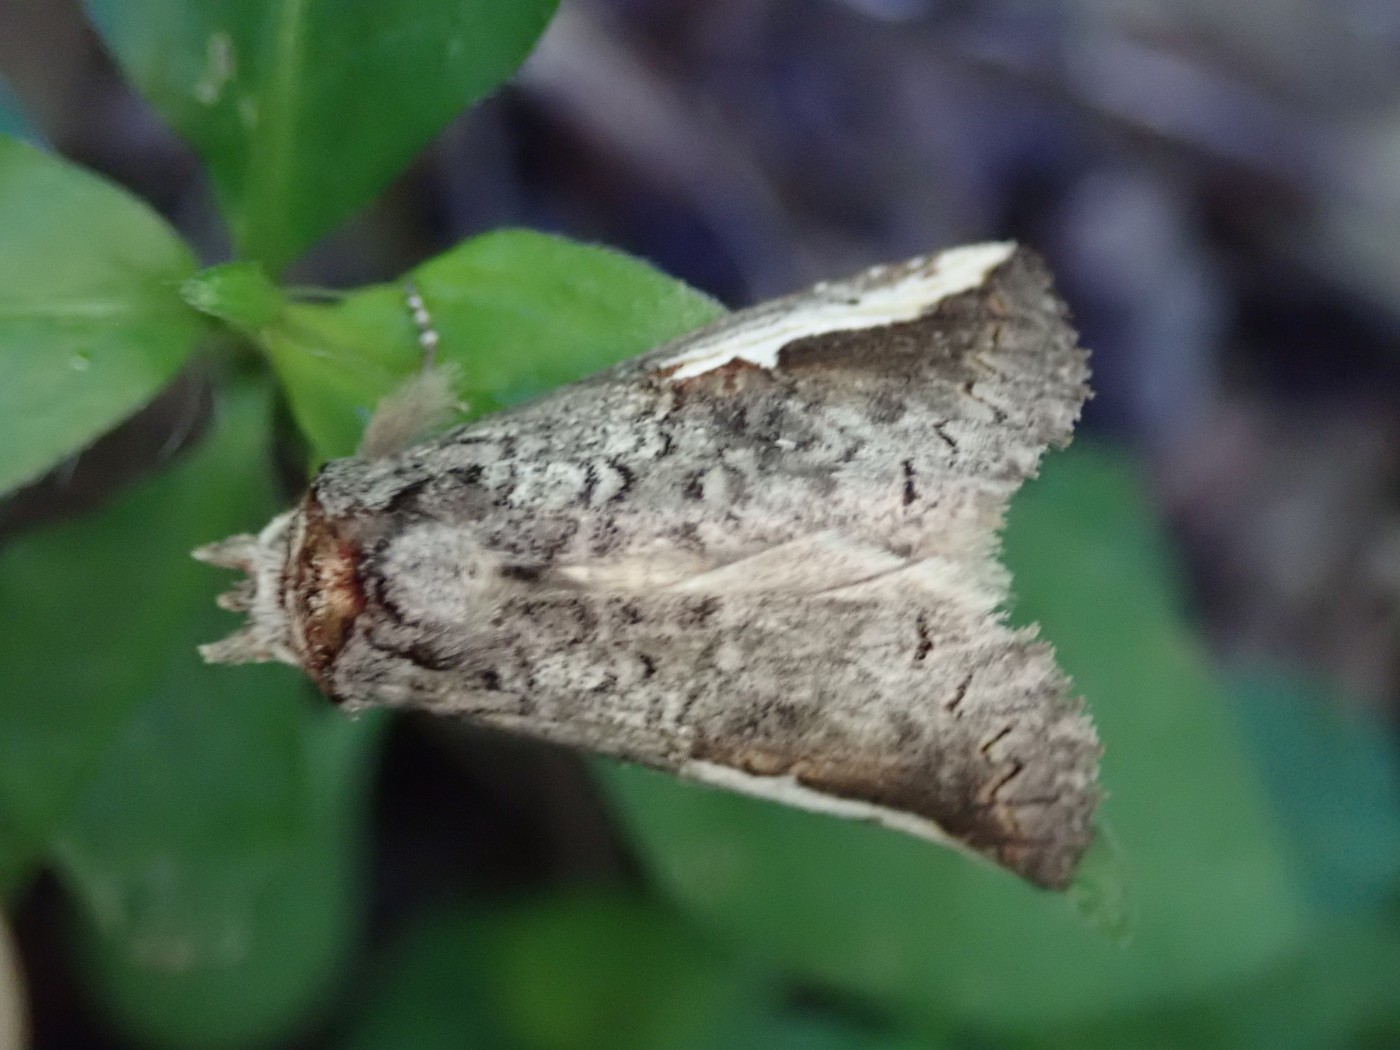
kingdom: Animalia
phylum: Arthropoda
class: Insecta
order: Lepidoptera
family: Notodontidae
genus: Symmerista
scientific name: Symmerista
